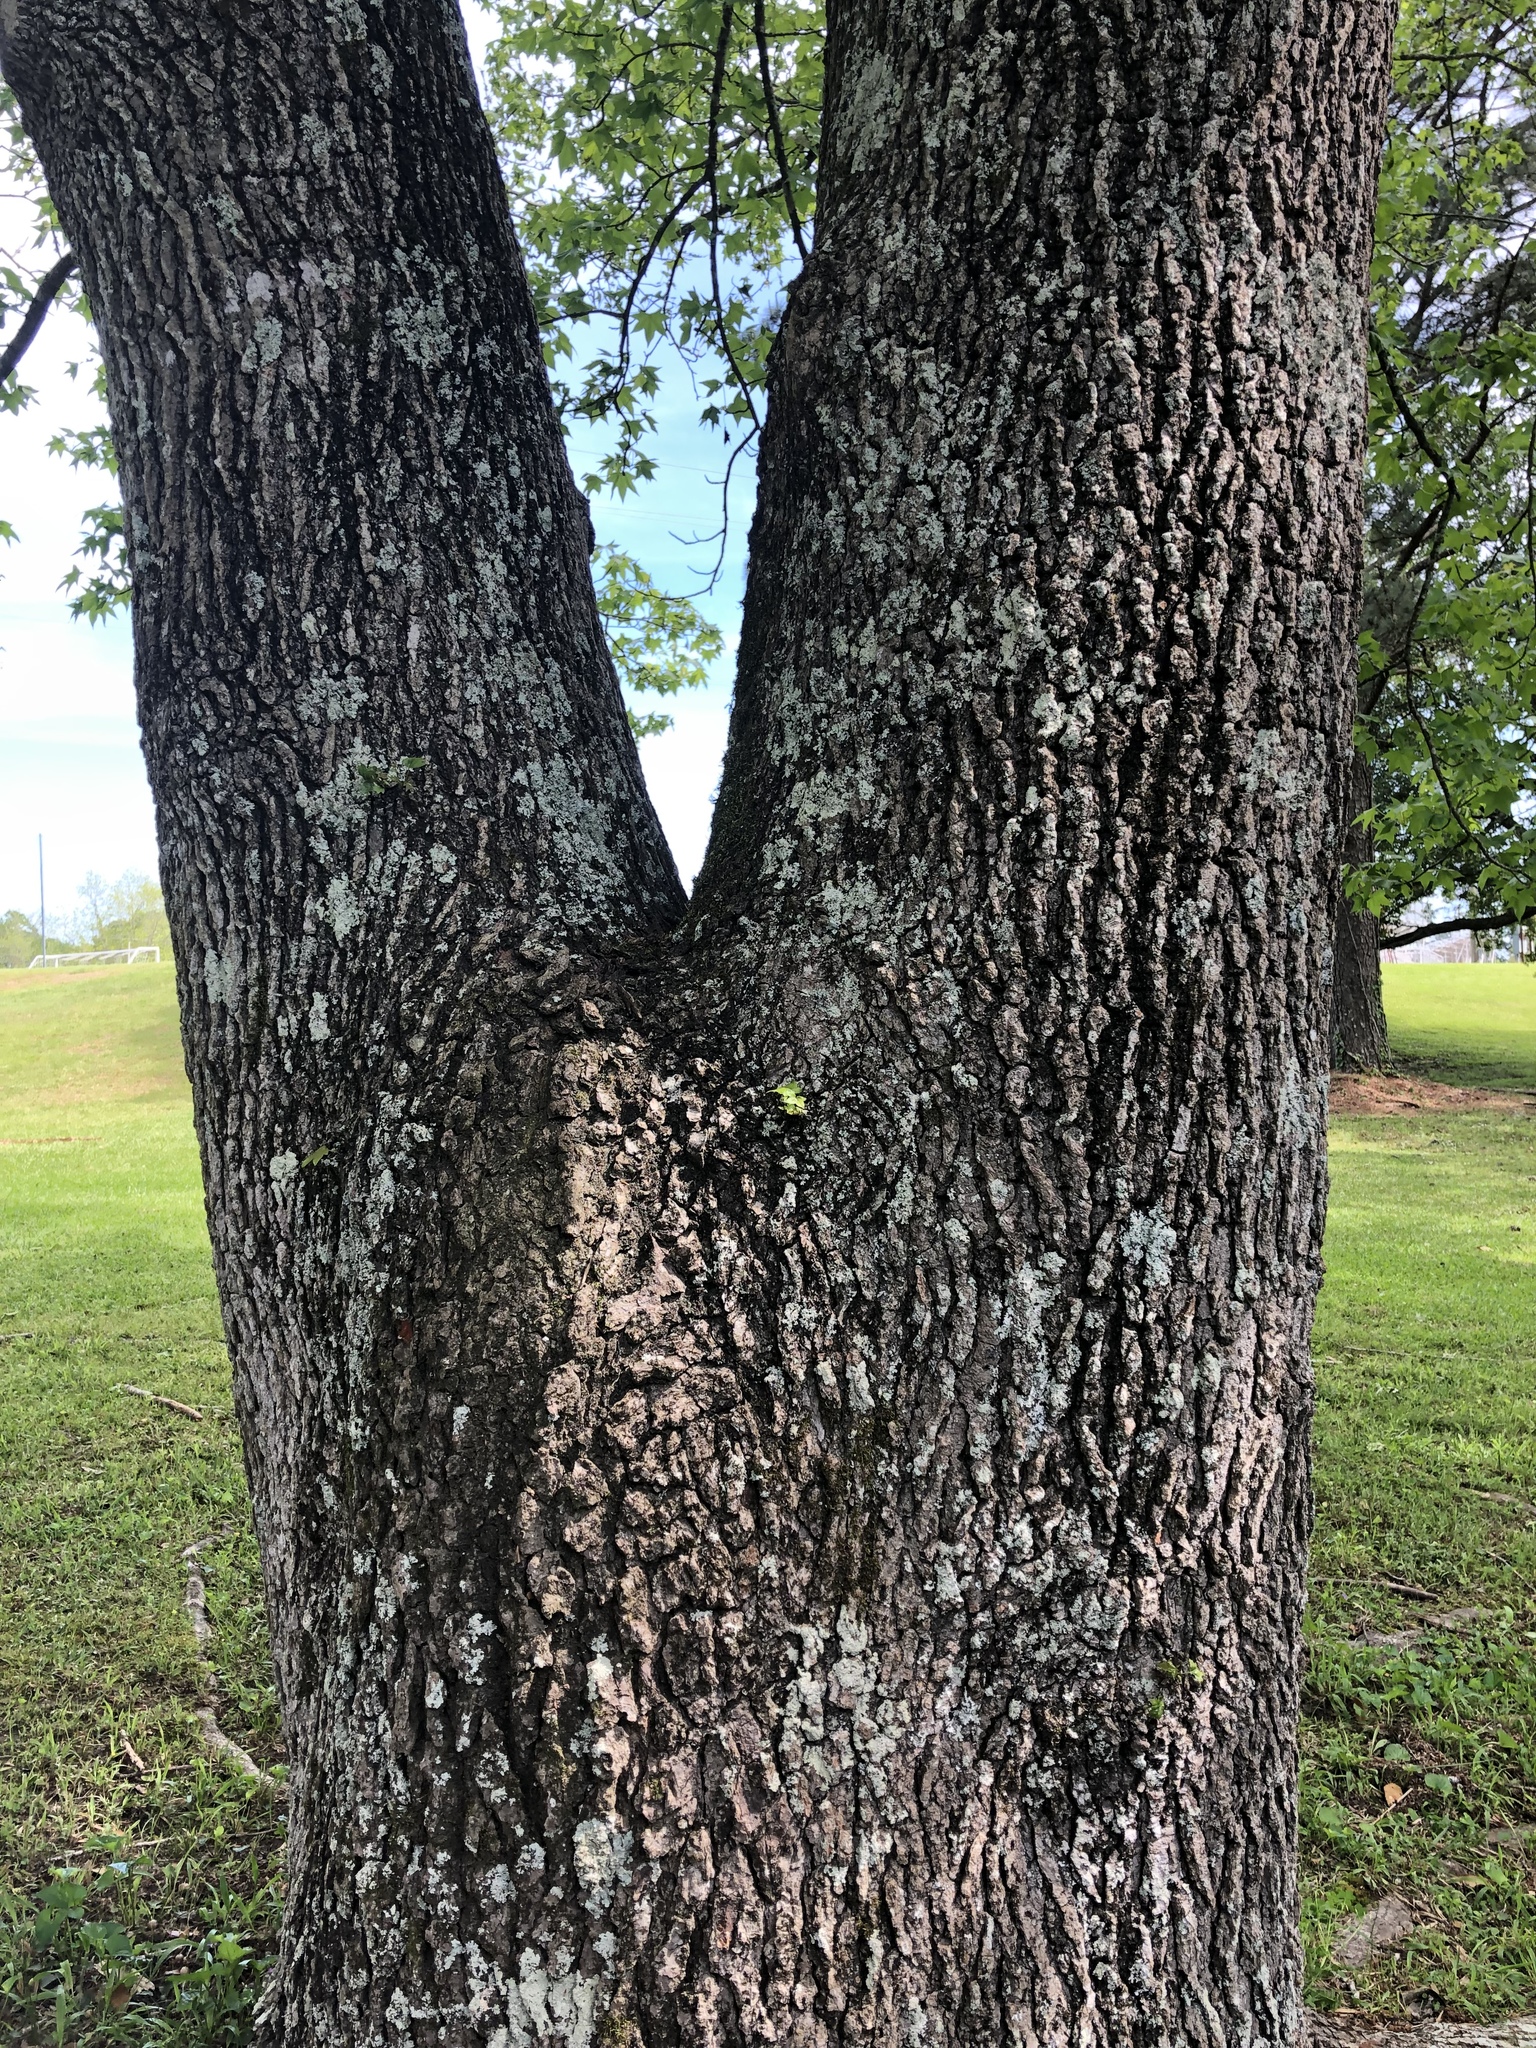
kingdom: Plantae
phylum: Tracheophyta
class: Magnoliopsida
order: Saxifragales
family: Altingiaceae
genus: Liquidambar
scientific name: Liquidambar styraciflua
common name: Sweet gum
